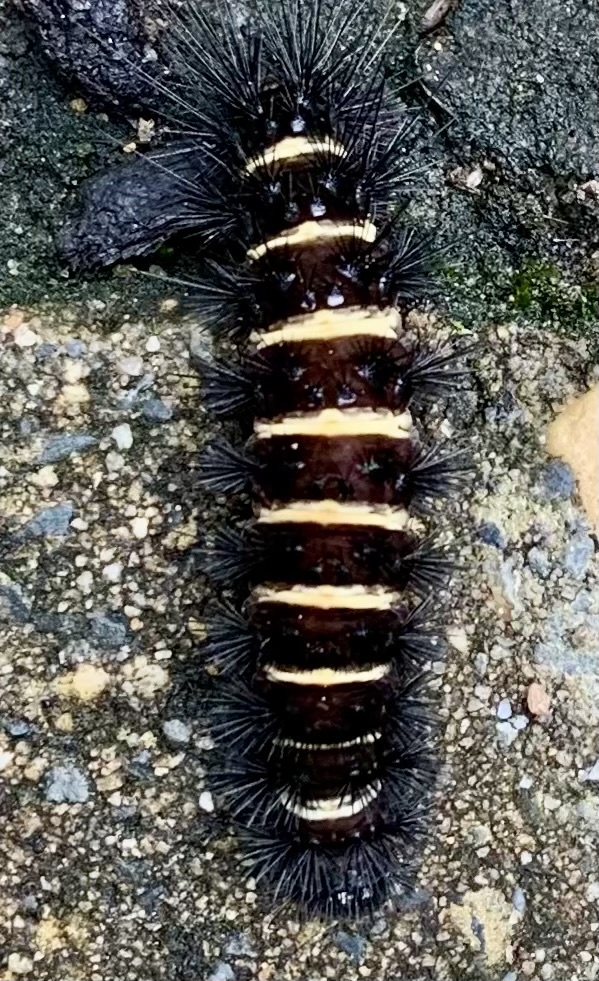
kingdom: Animalia
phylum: Arthropoda
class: Insecta
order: Lepidoptera
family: Erebidae
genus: Spilosoma
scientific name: Spilosoma congrua
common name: Agreeable tiger moth
